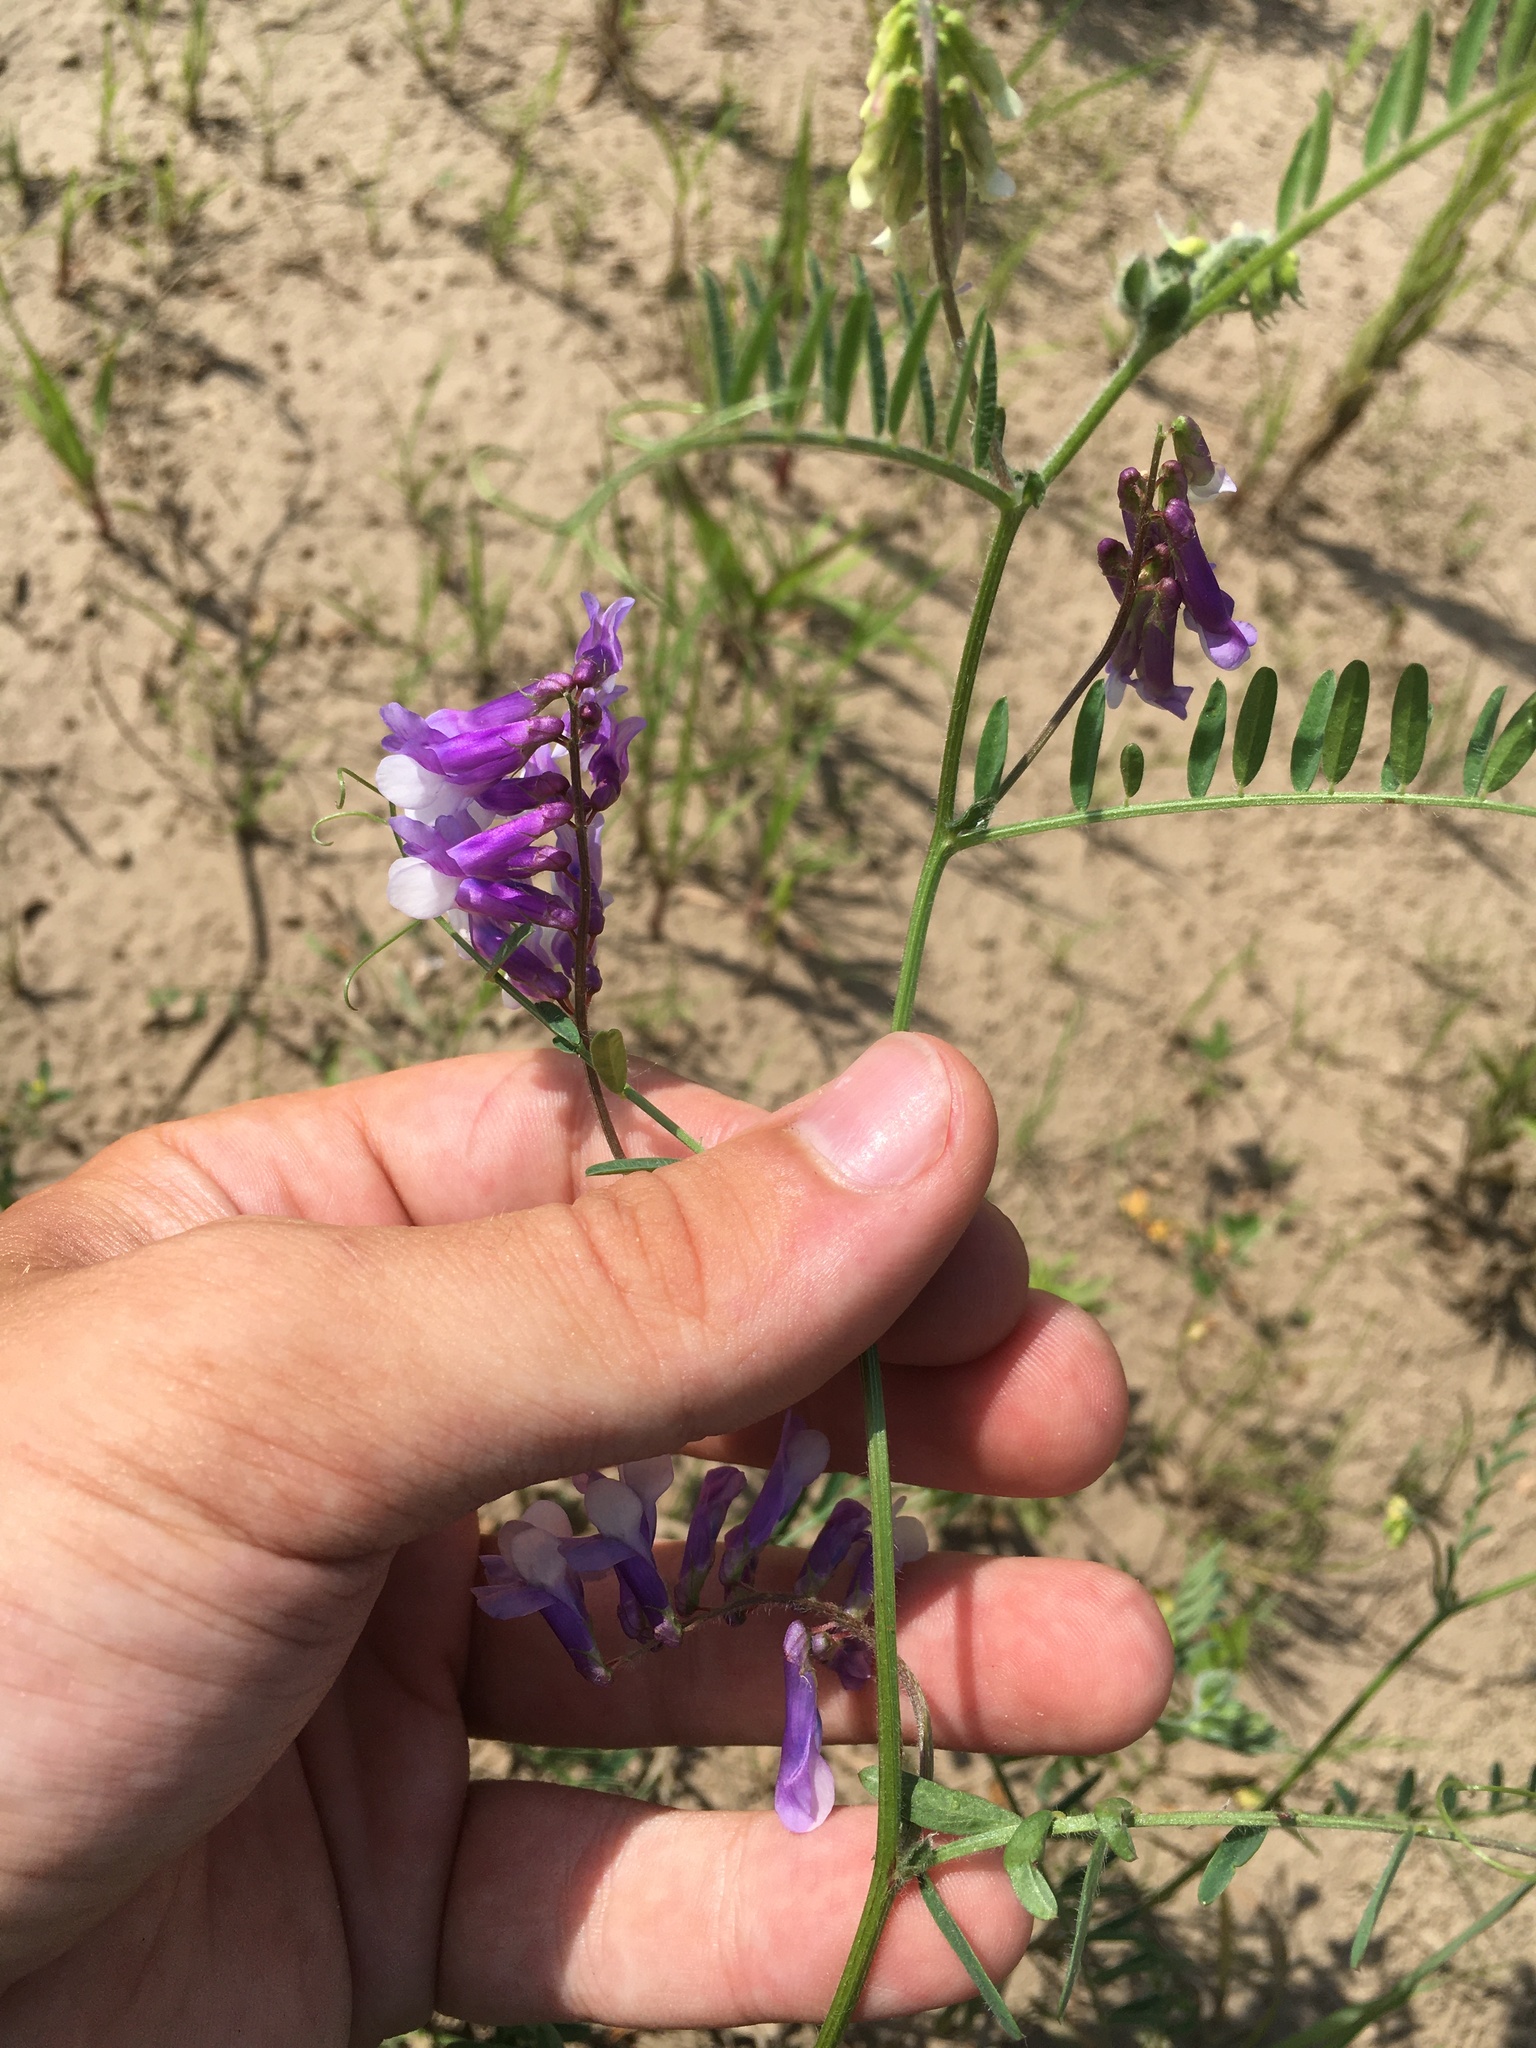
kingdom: Plantae
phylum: Tracheophyta
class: Magnoliopsida
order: Fabales
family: Fabaceae
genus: Vicia
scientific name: Vicia villosa
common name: Fodder vetch
